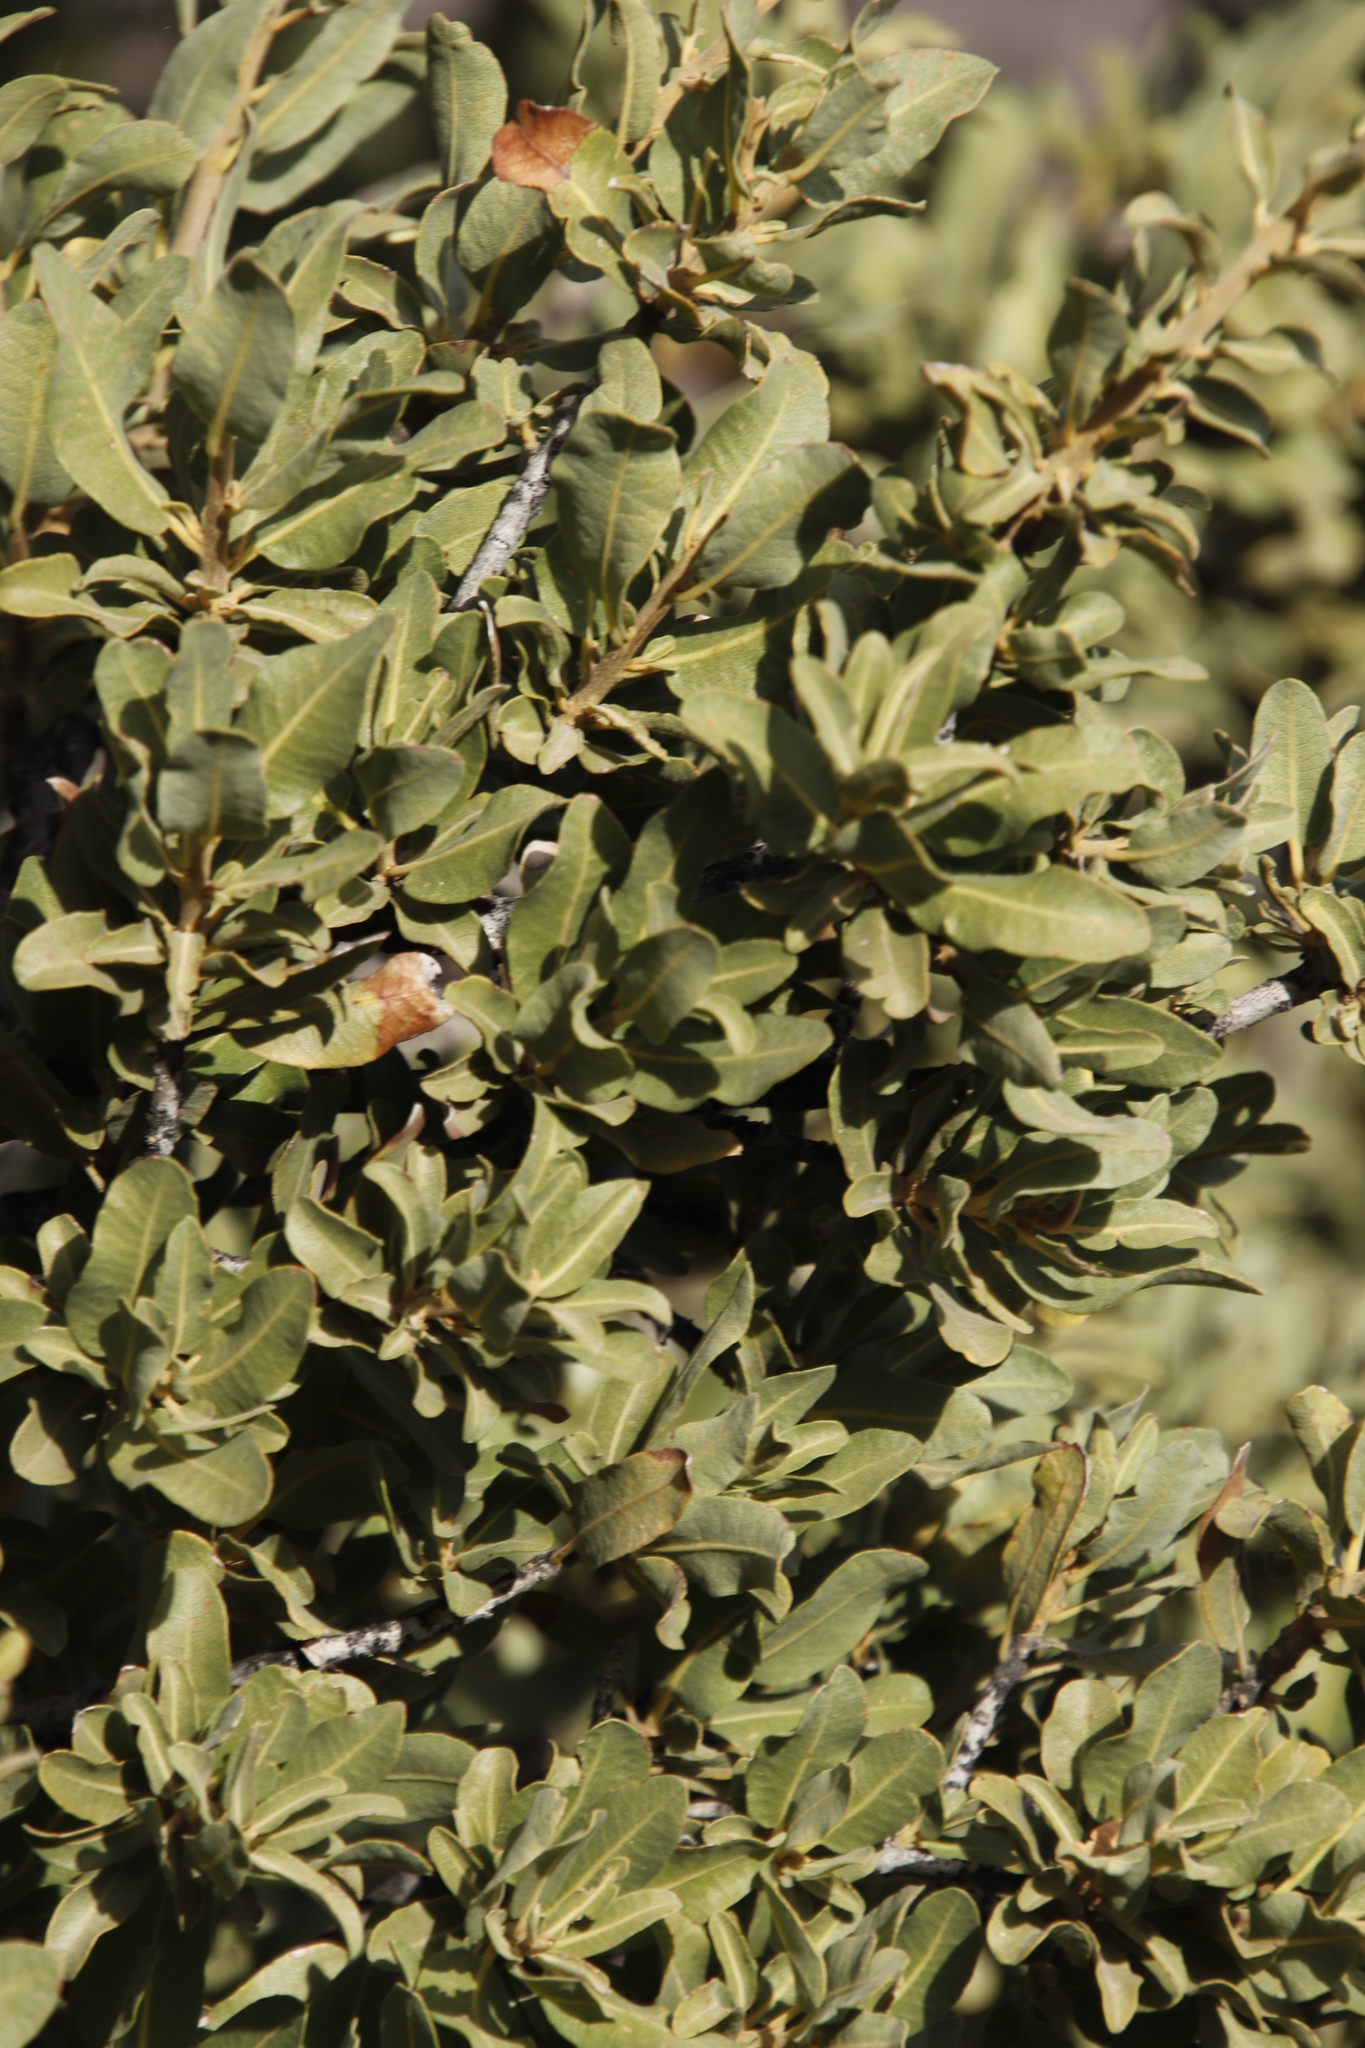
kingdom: Plantae
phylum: Tracheophyta
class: Magnoliopsida
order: Sapindales
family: Sapindaceae
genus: Pappea
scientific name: Pappea capensis
